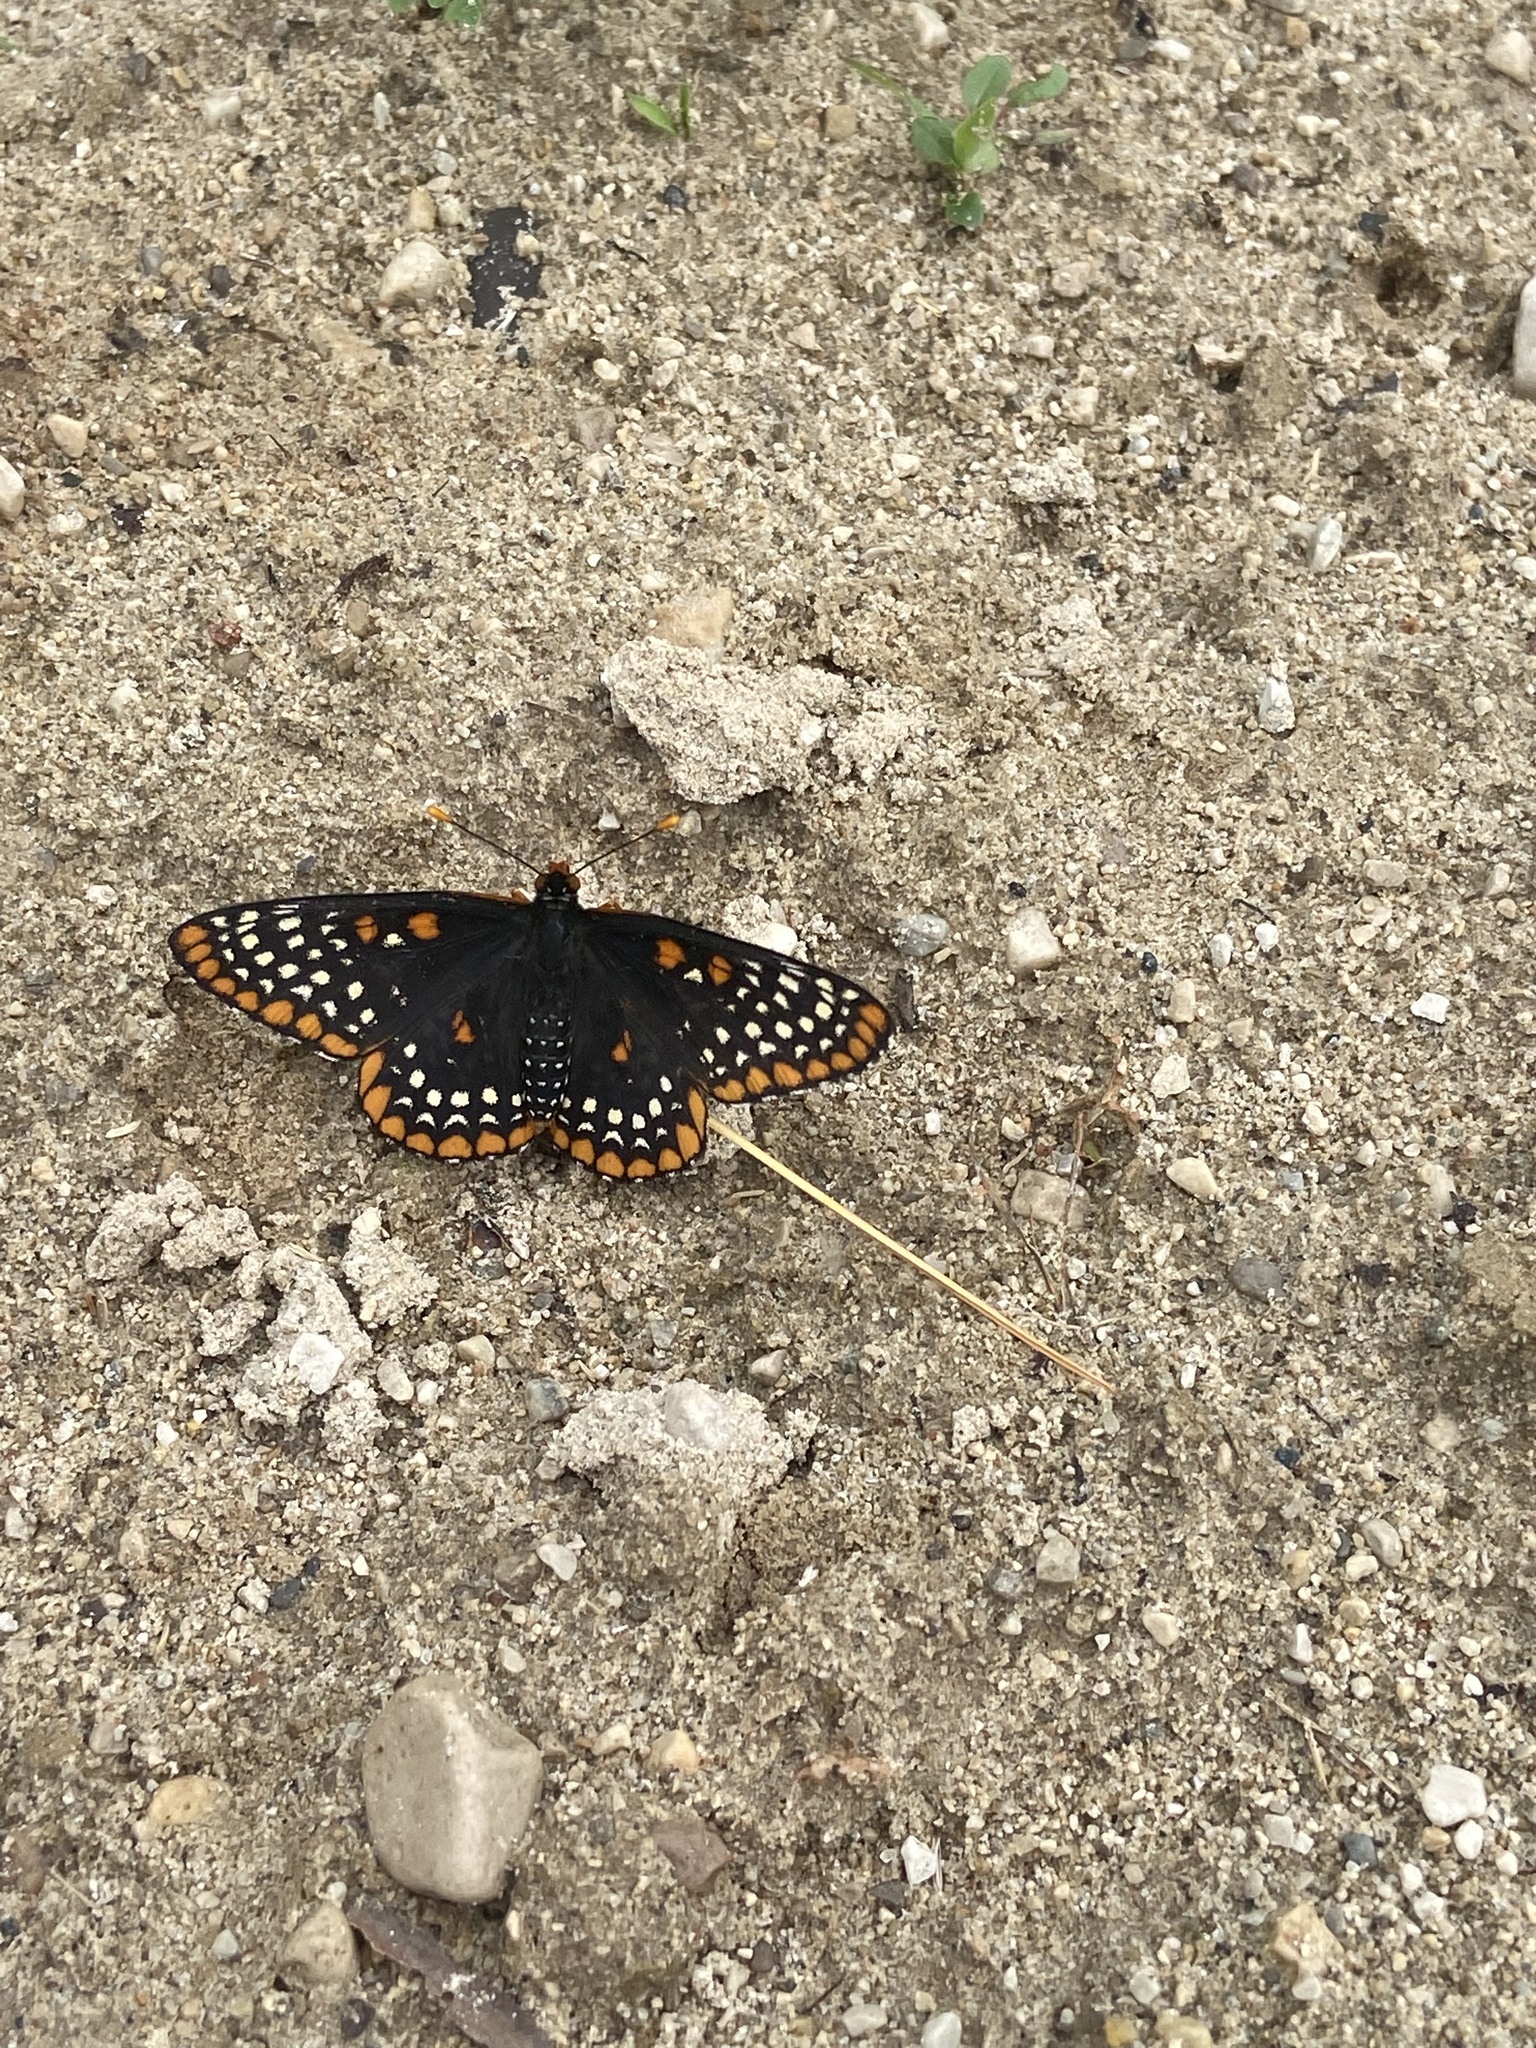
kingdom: Animalia
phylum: Arthropoda
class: Insecta
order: Lepidoptera
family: Nymphalidae
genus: Euphydryas
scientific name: Euphydryas phaeton
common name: Baltimore checkerspot
